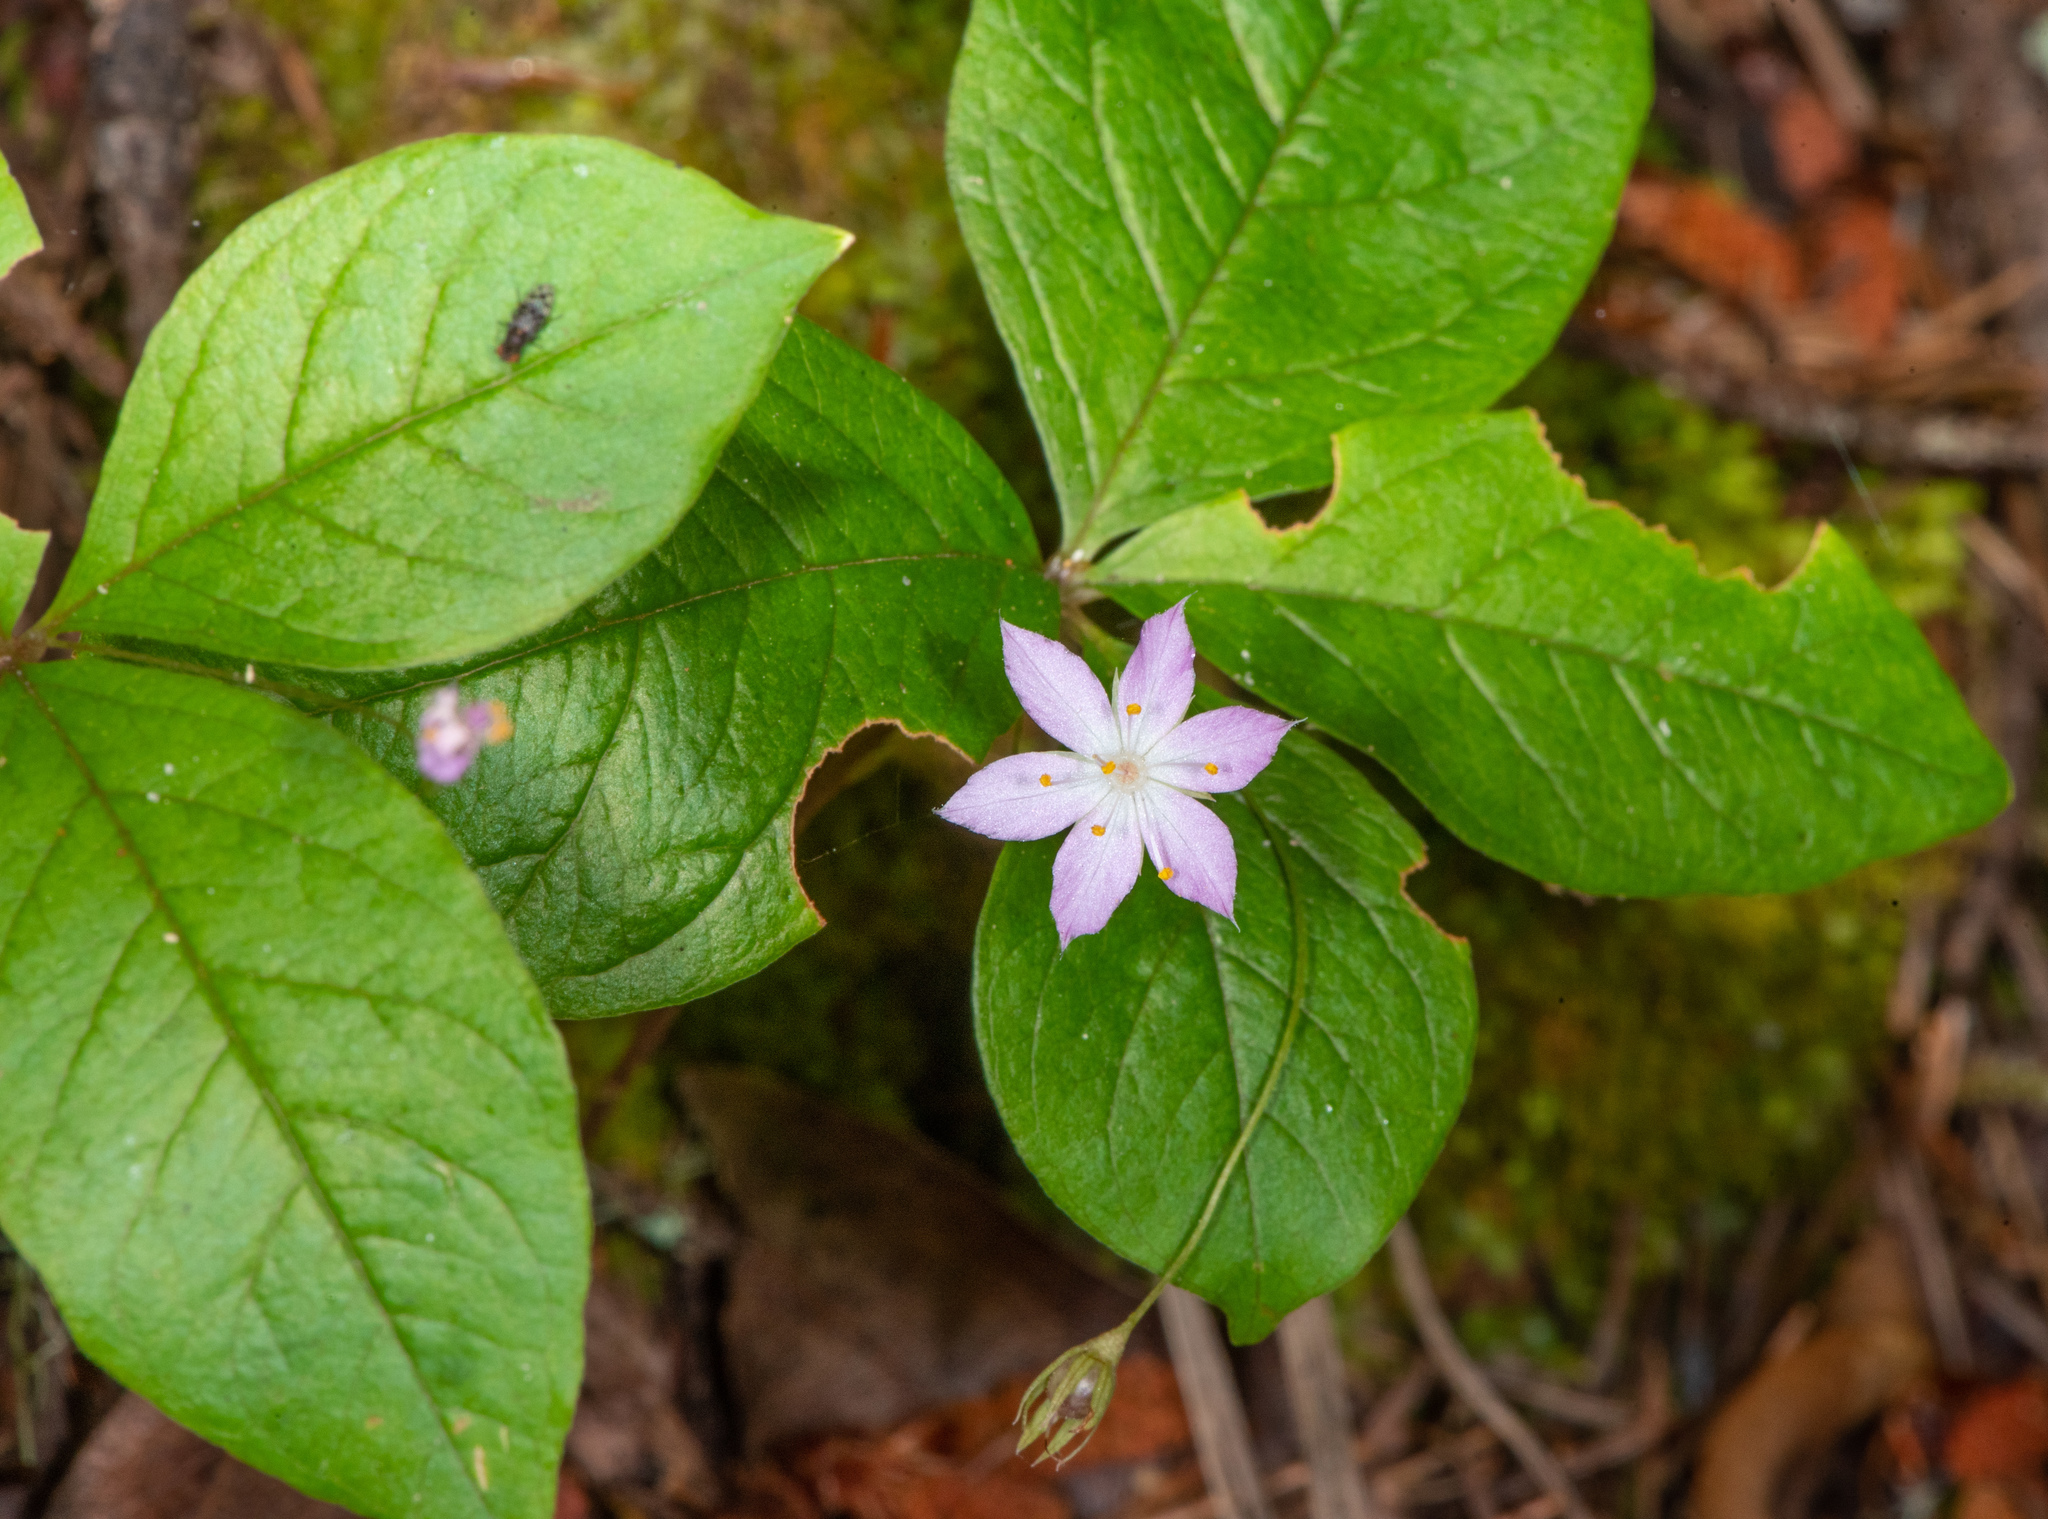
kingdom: Plantae
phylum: Tracheophyta
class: Magnoliopsida
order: Ericales
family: Primulaceae
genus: Lysimachia
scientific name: Lysimachia latifolia
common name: Pacific starflower
